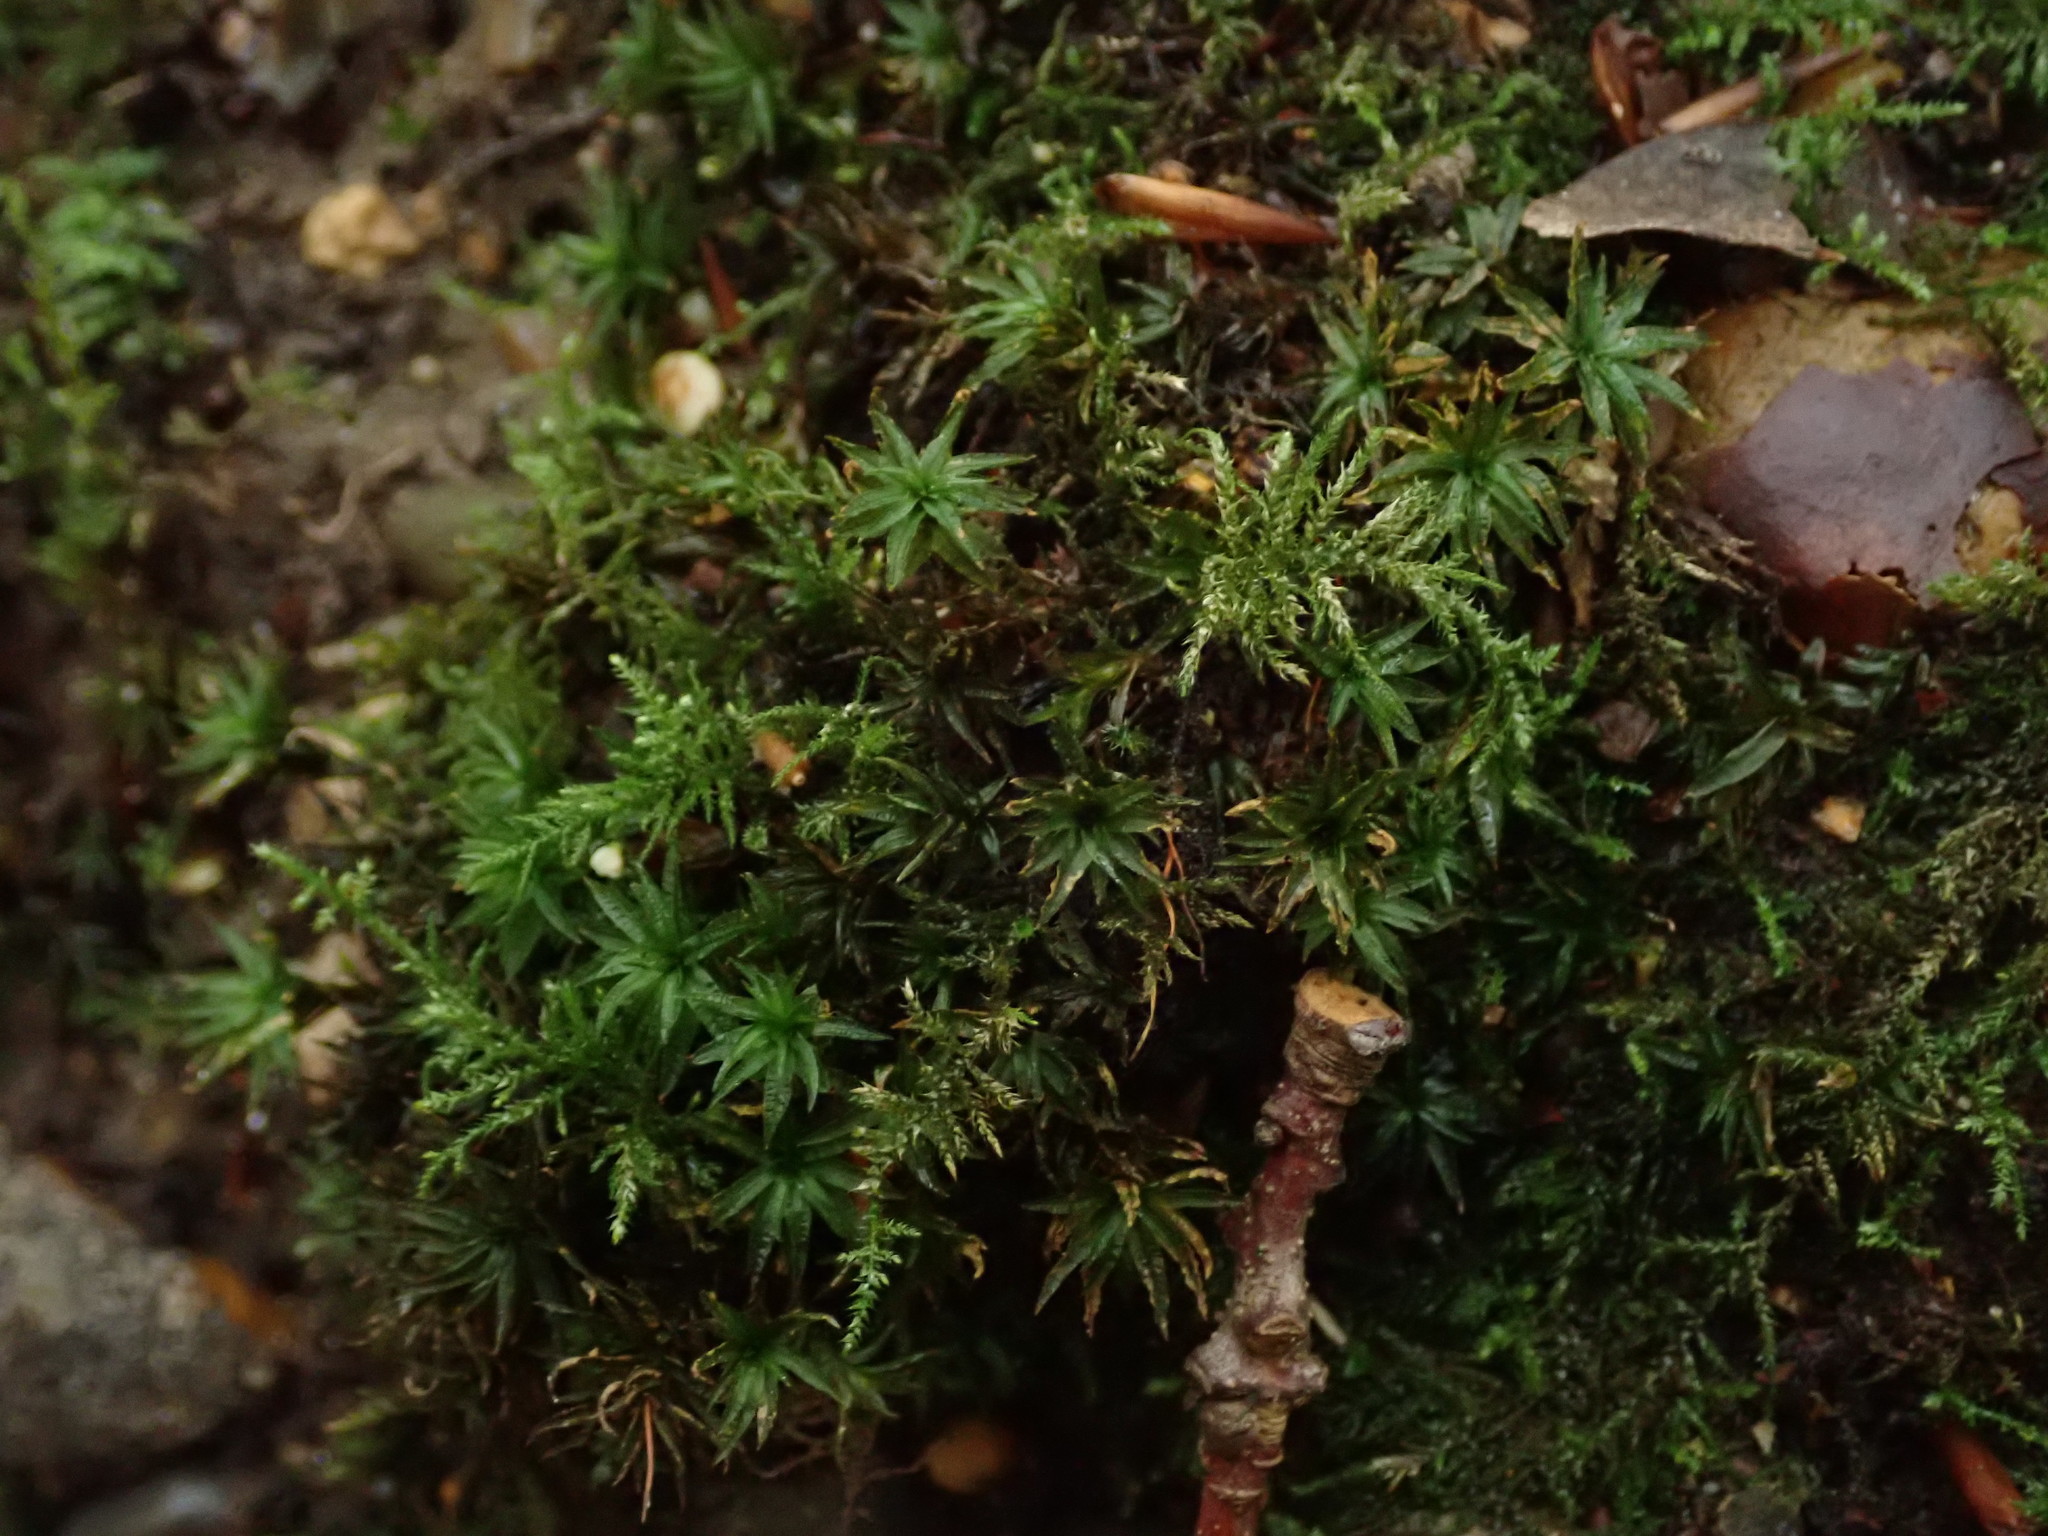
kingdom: Plantae
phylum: Bryophyta
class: Polytrichopsida
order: Polytrichales
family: Polytrichaceae
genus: Atrichum
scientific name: Atrichum undulatum
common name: Common smoothcap
